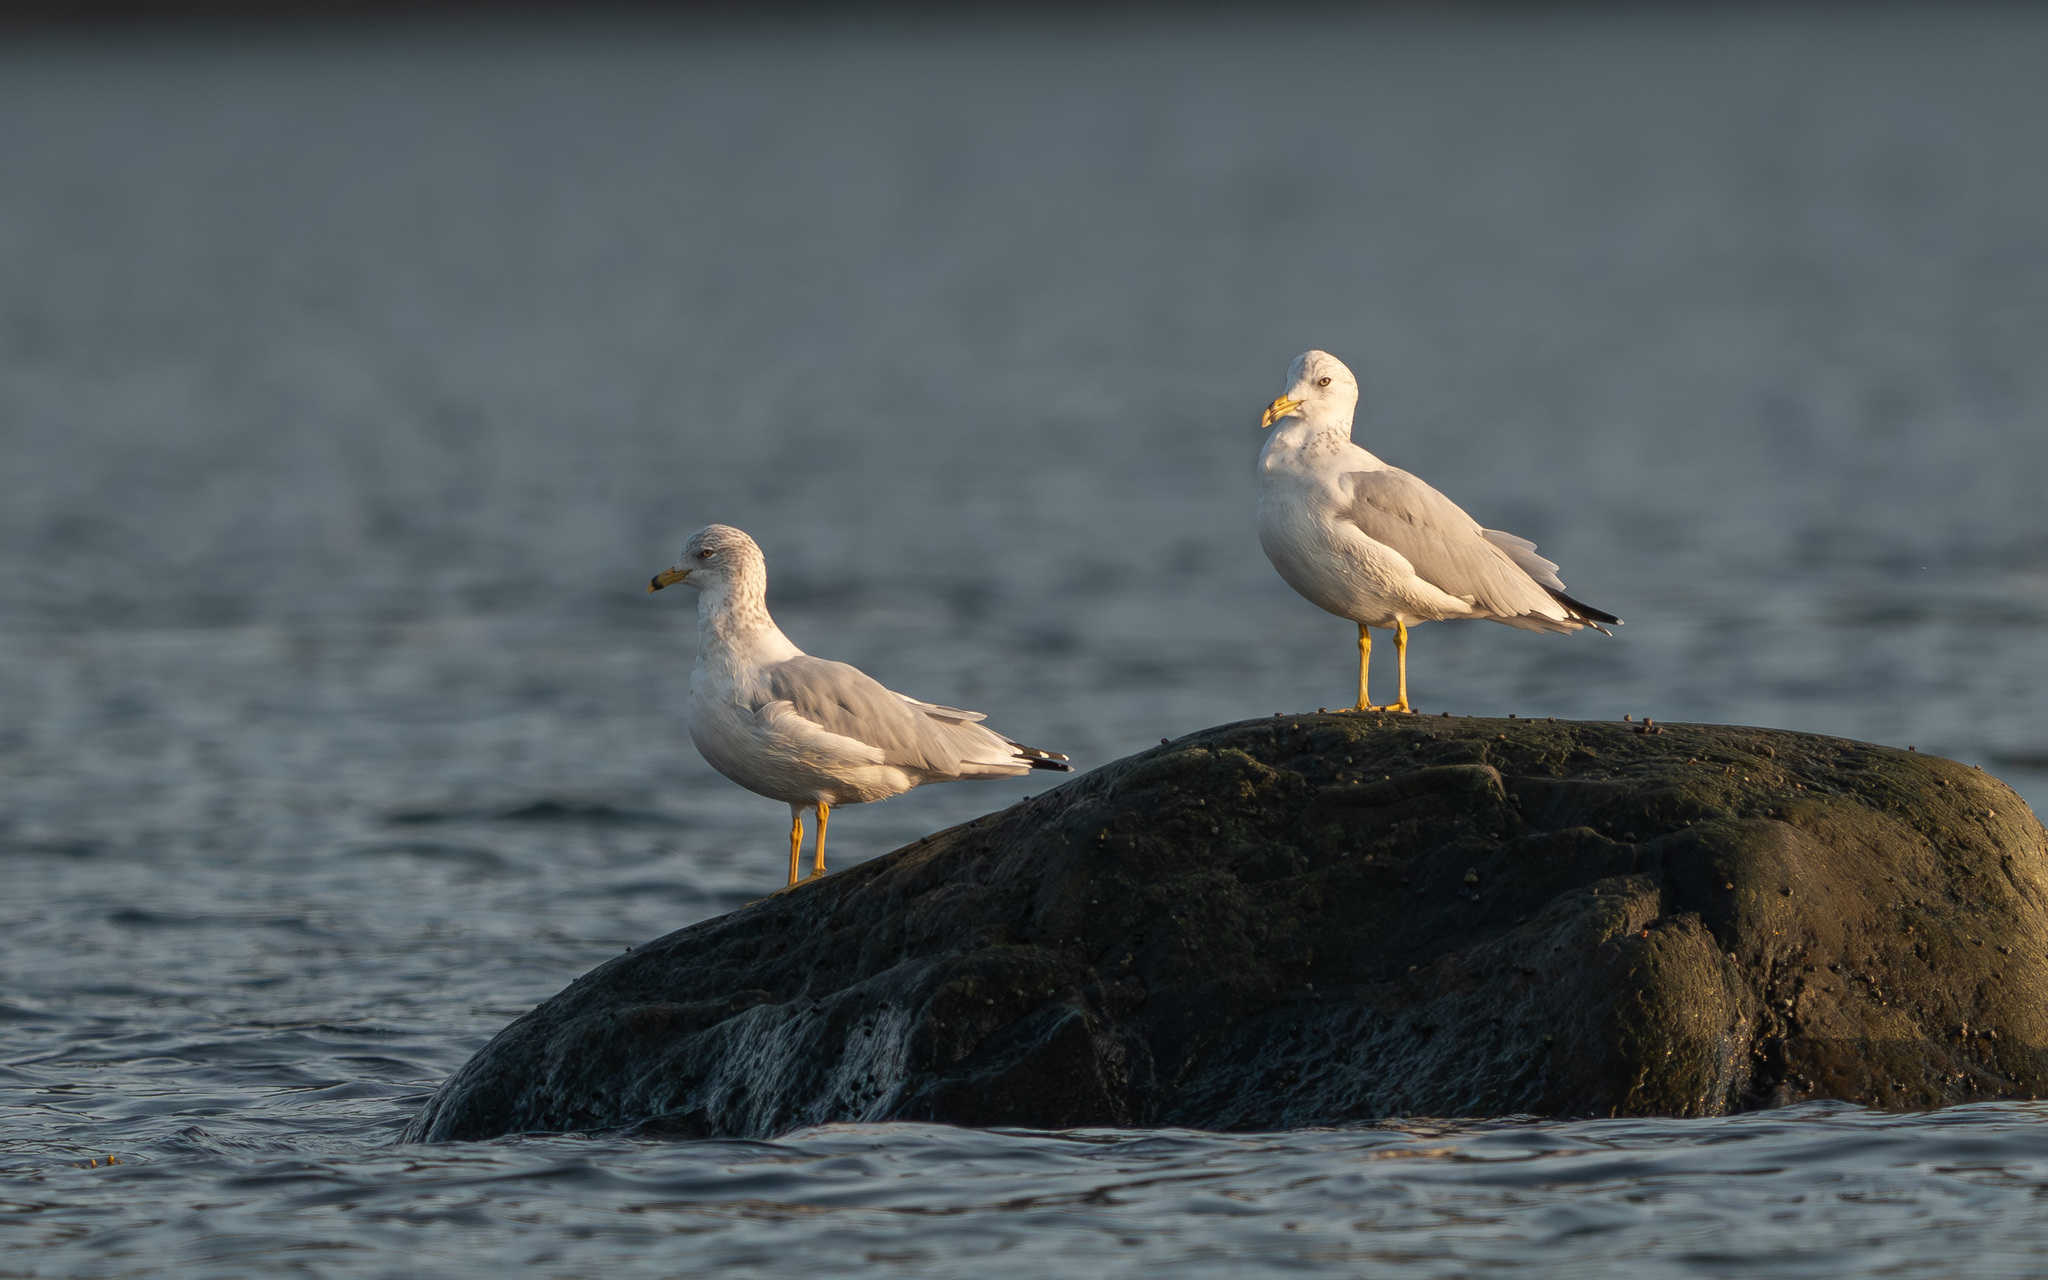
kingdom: Animalia
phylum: Chordata
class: Aves
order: Charadriiformes
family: Laridae
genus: Larus
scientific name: Larus delawarensis
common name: Ring-billed gull
